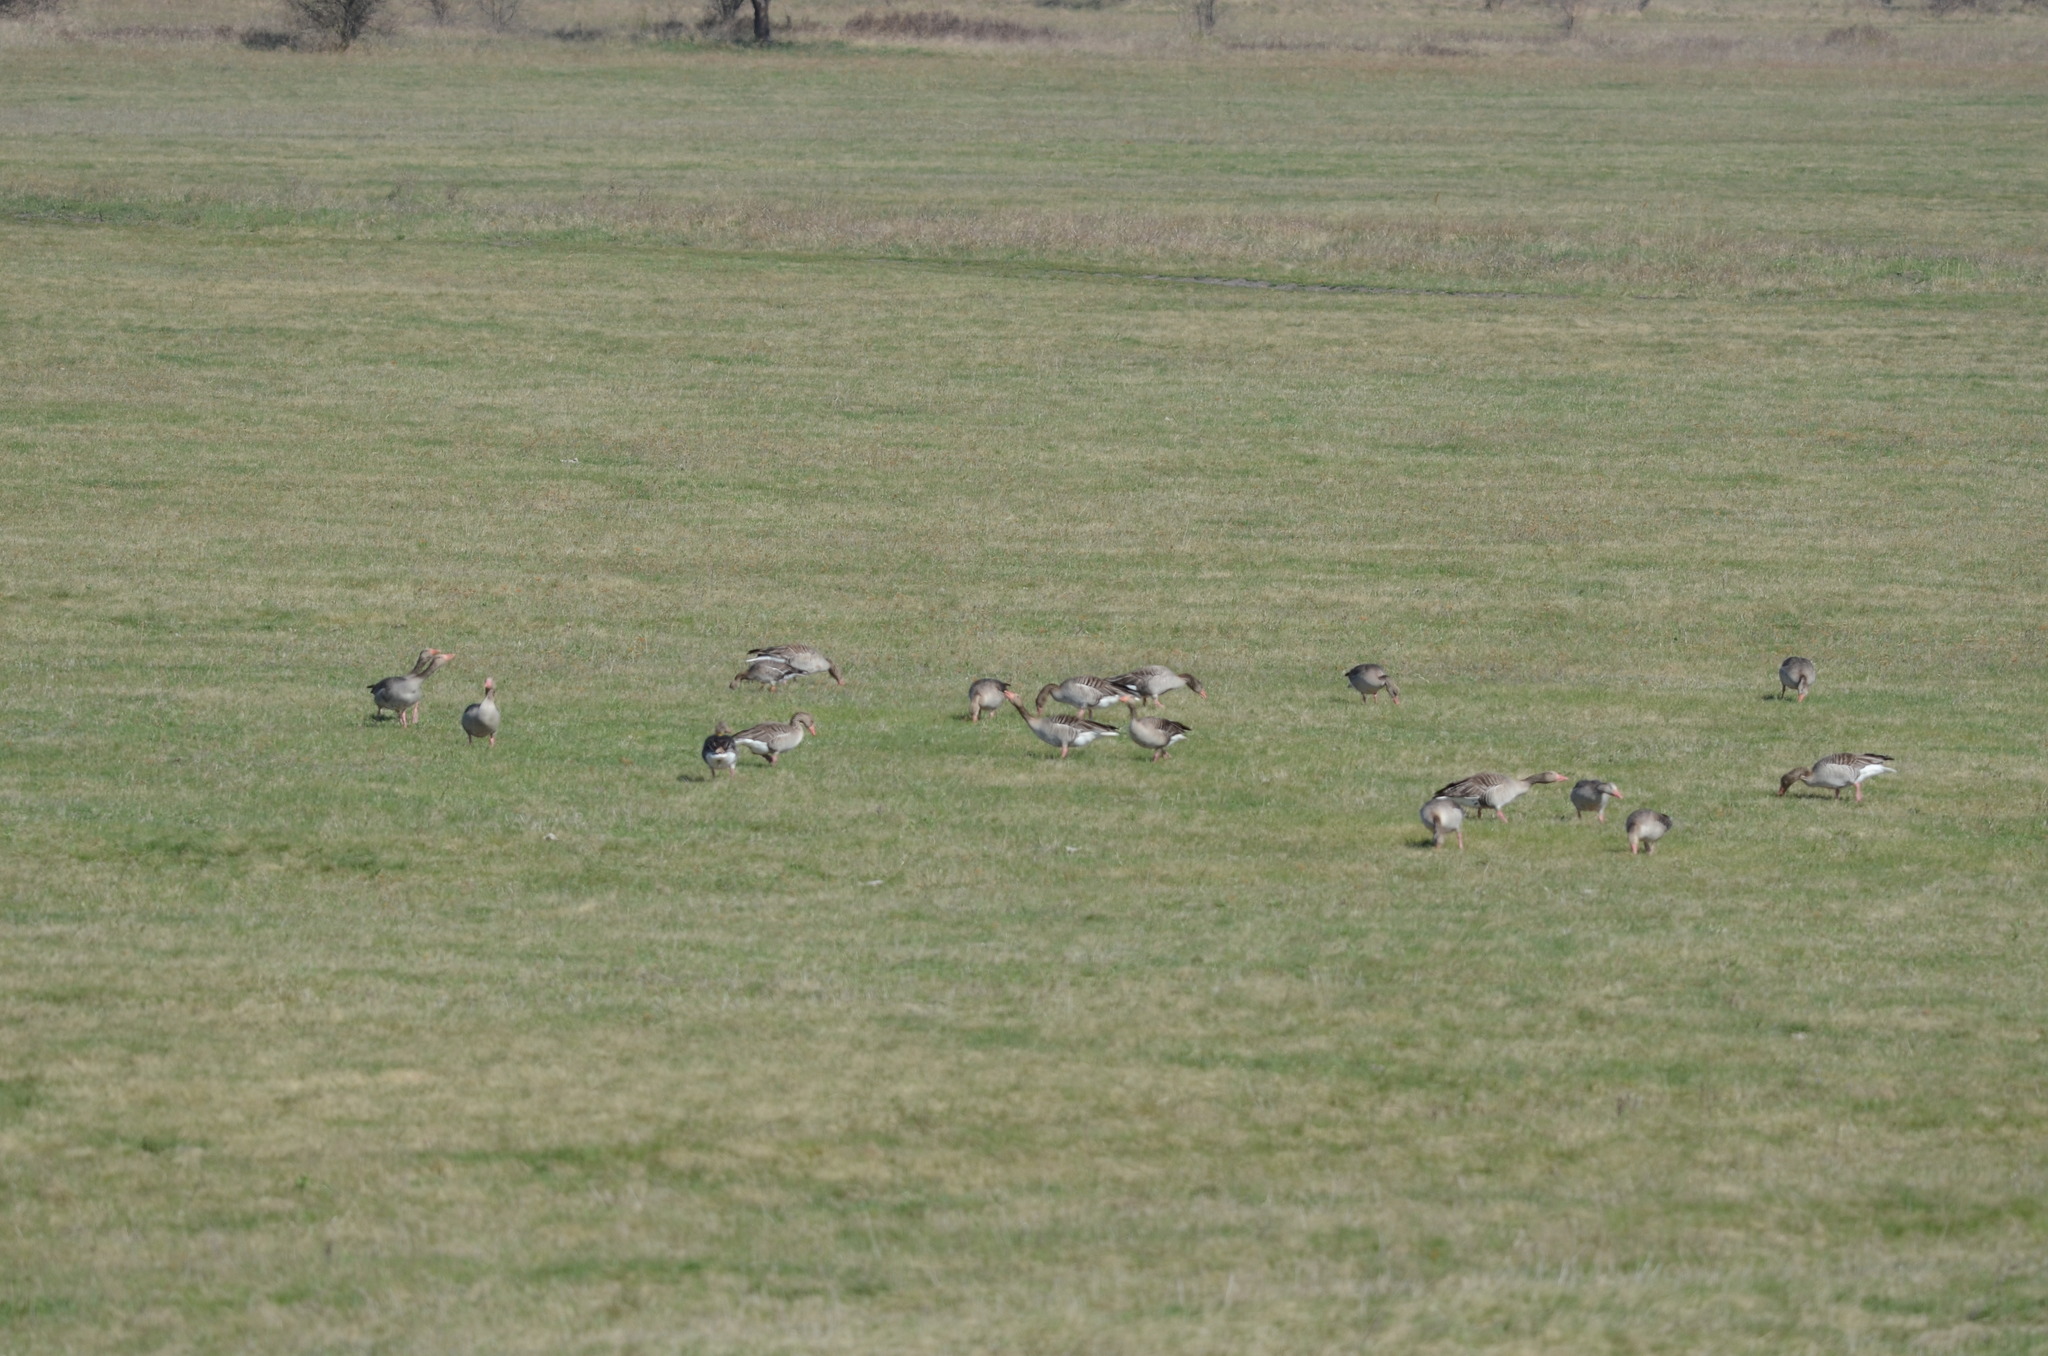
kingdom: Animalia
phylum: Chordata
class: Aves
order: Anseriformes
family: Anatidae
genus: Anser
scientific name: Anser anser
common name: Greylag goose
